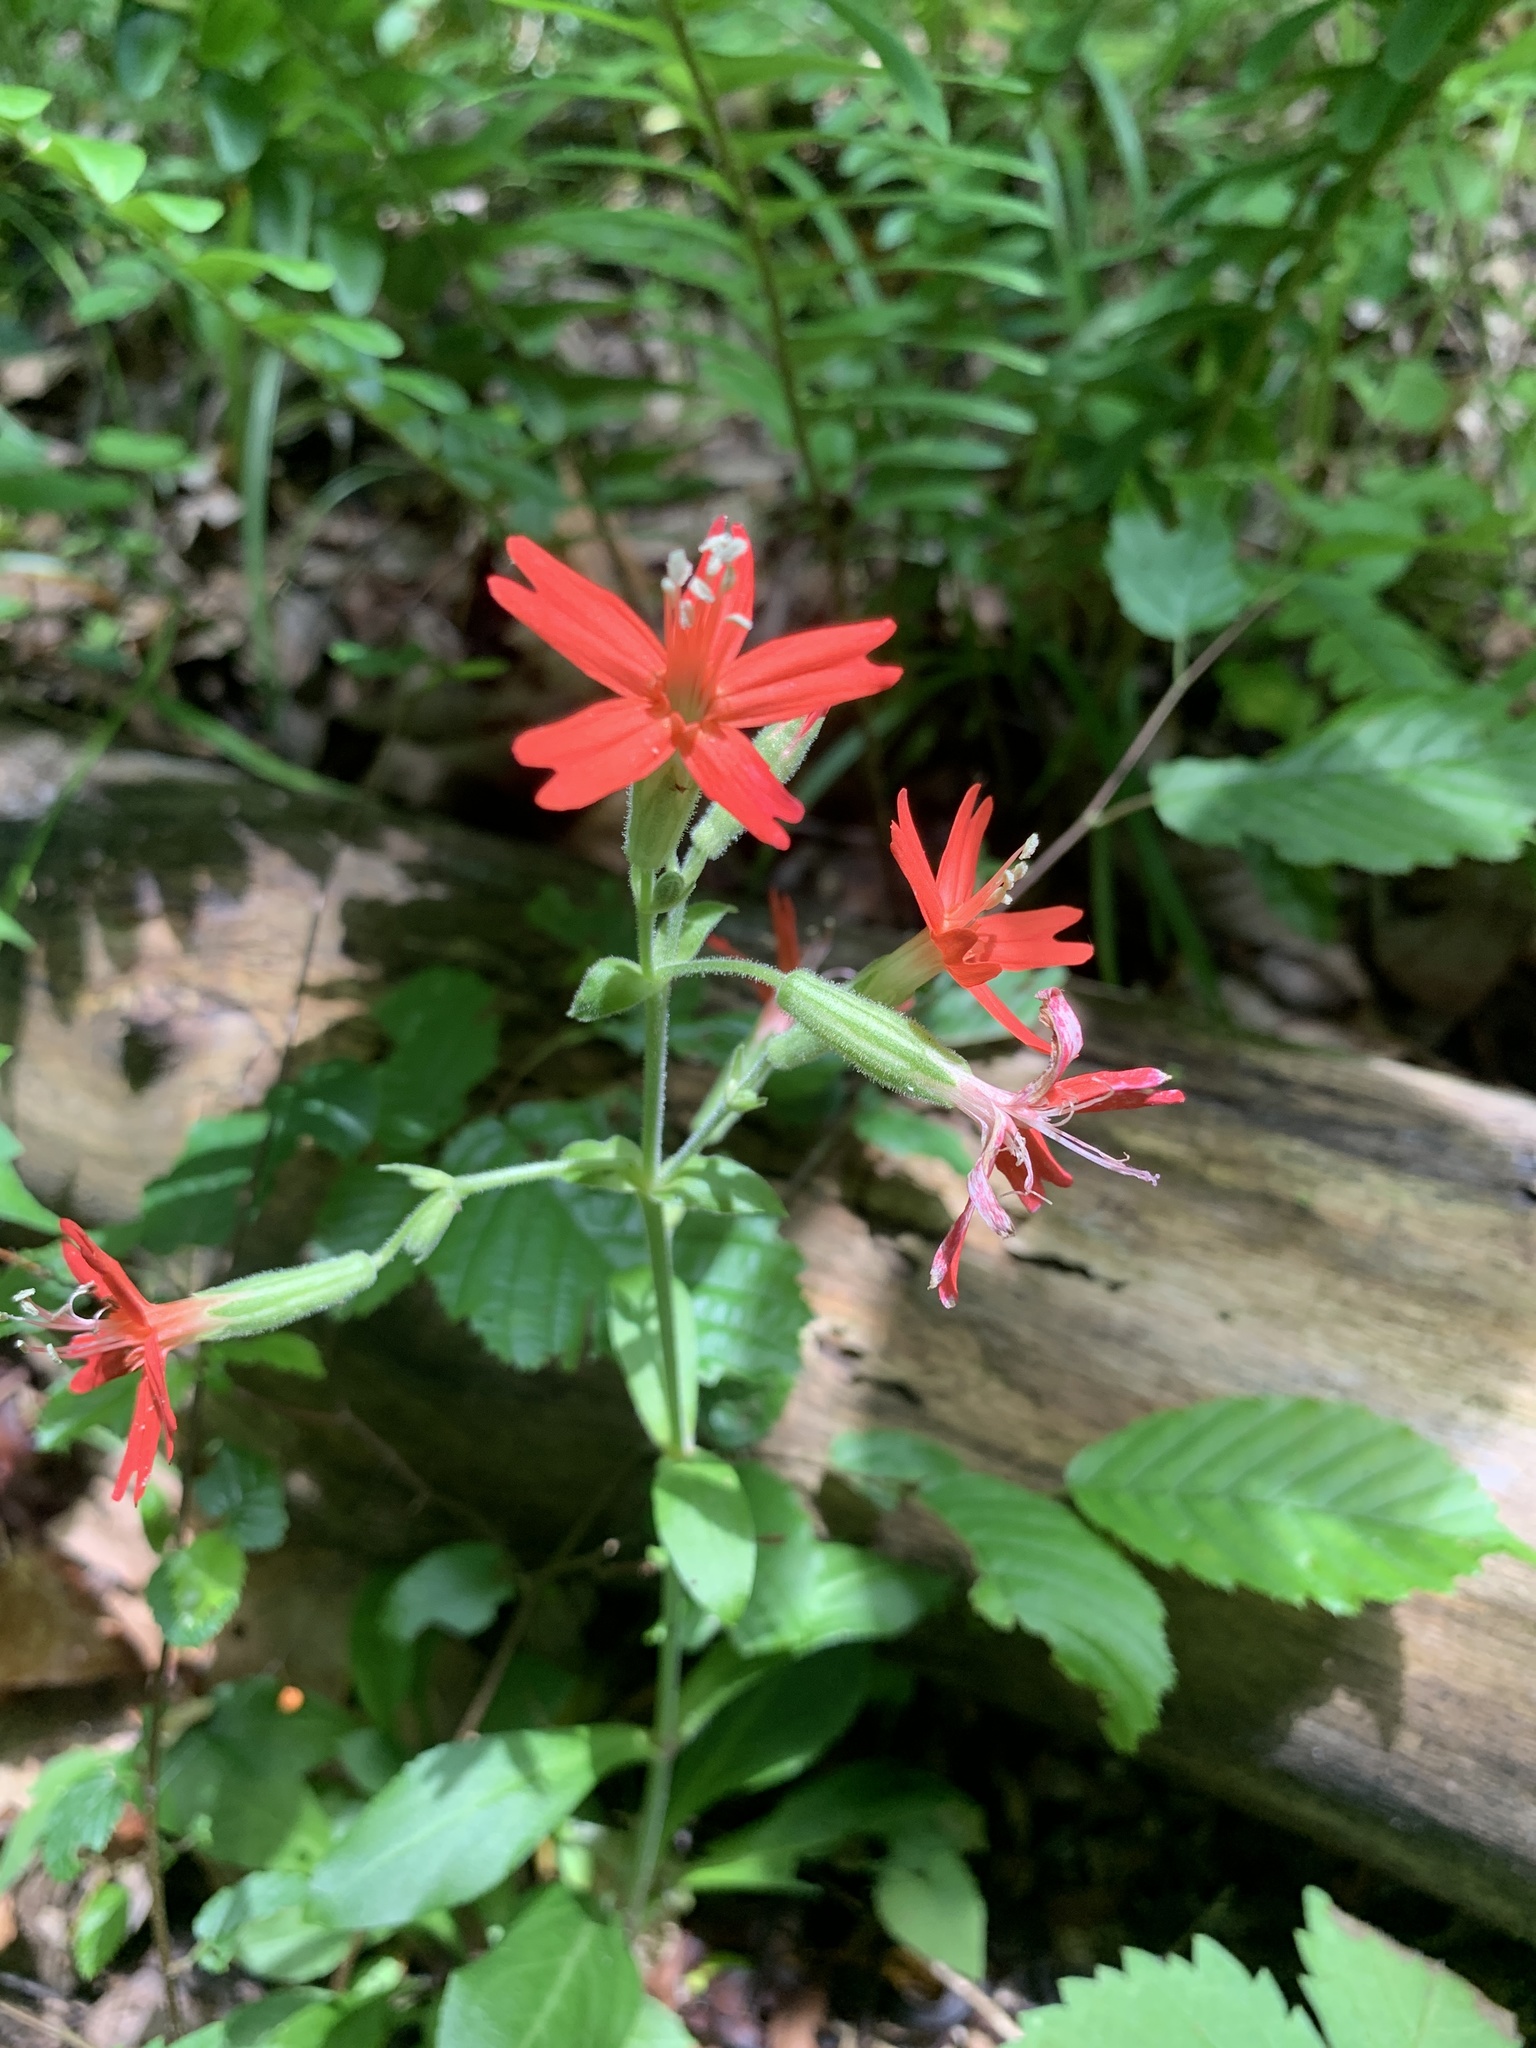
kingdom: Plantae
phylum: Tracheophyta
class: Magnoliopsida
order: Caryophyllales
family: Caryophyllaceae
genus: Silene
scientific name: Silene virginica
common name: Fire-pink
